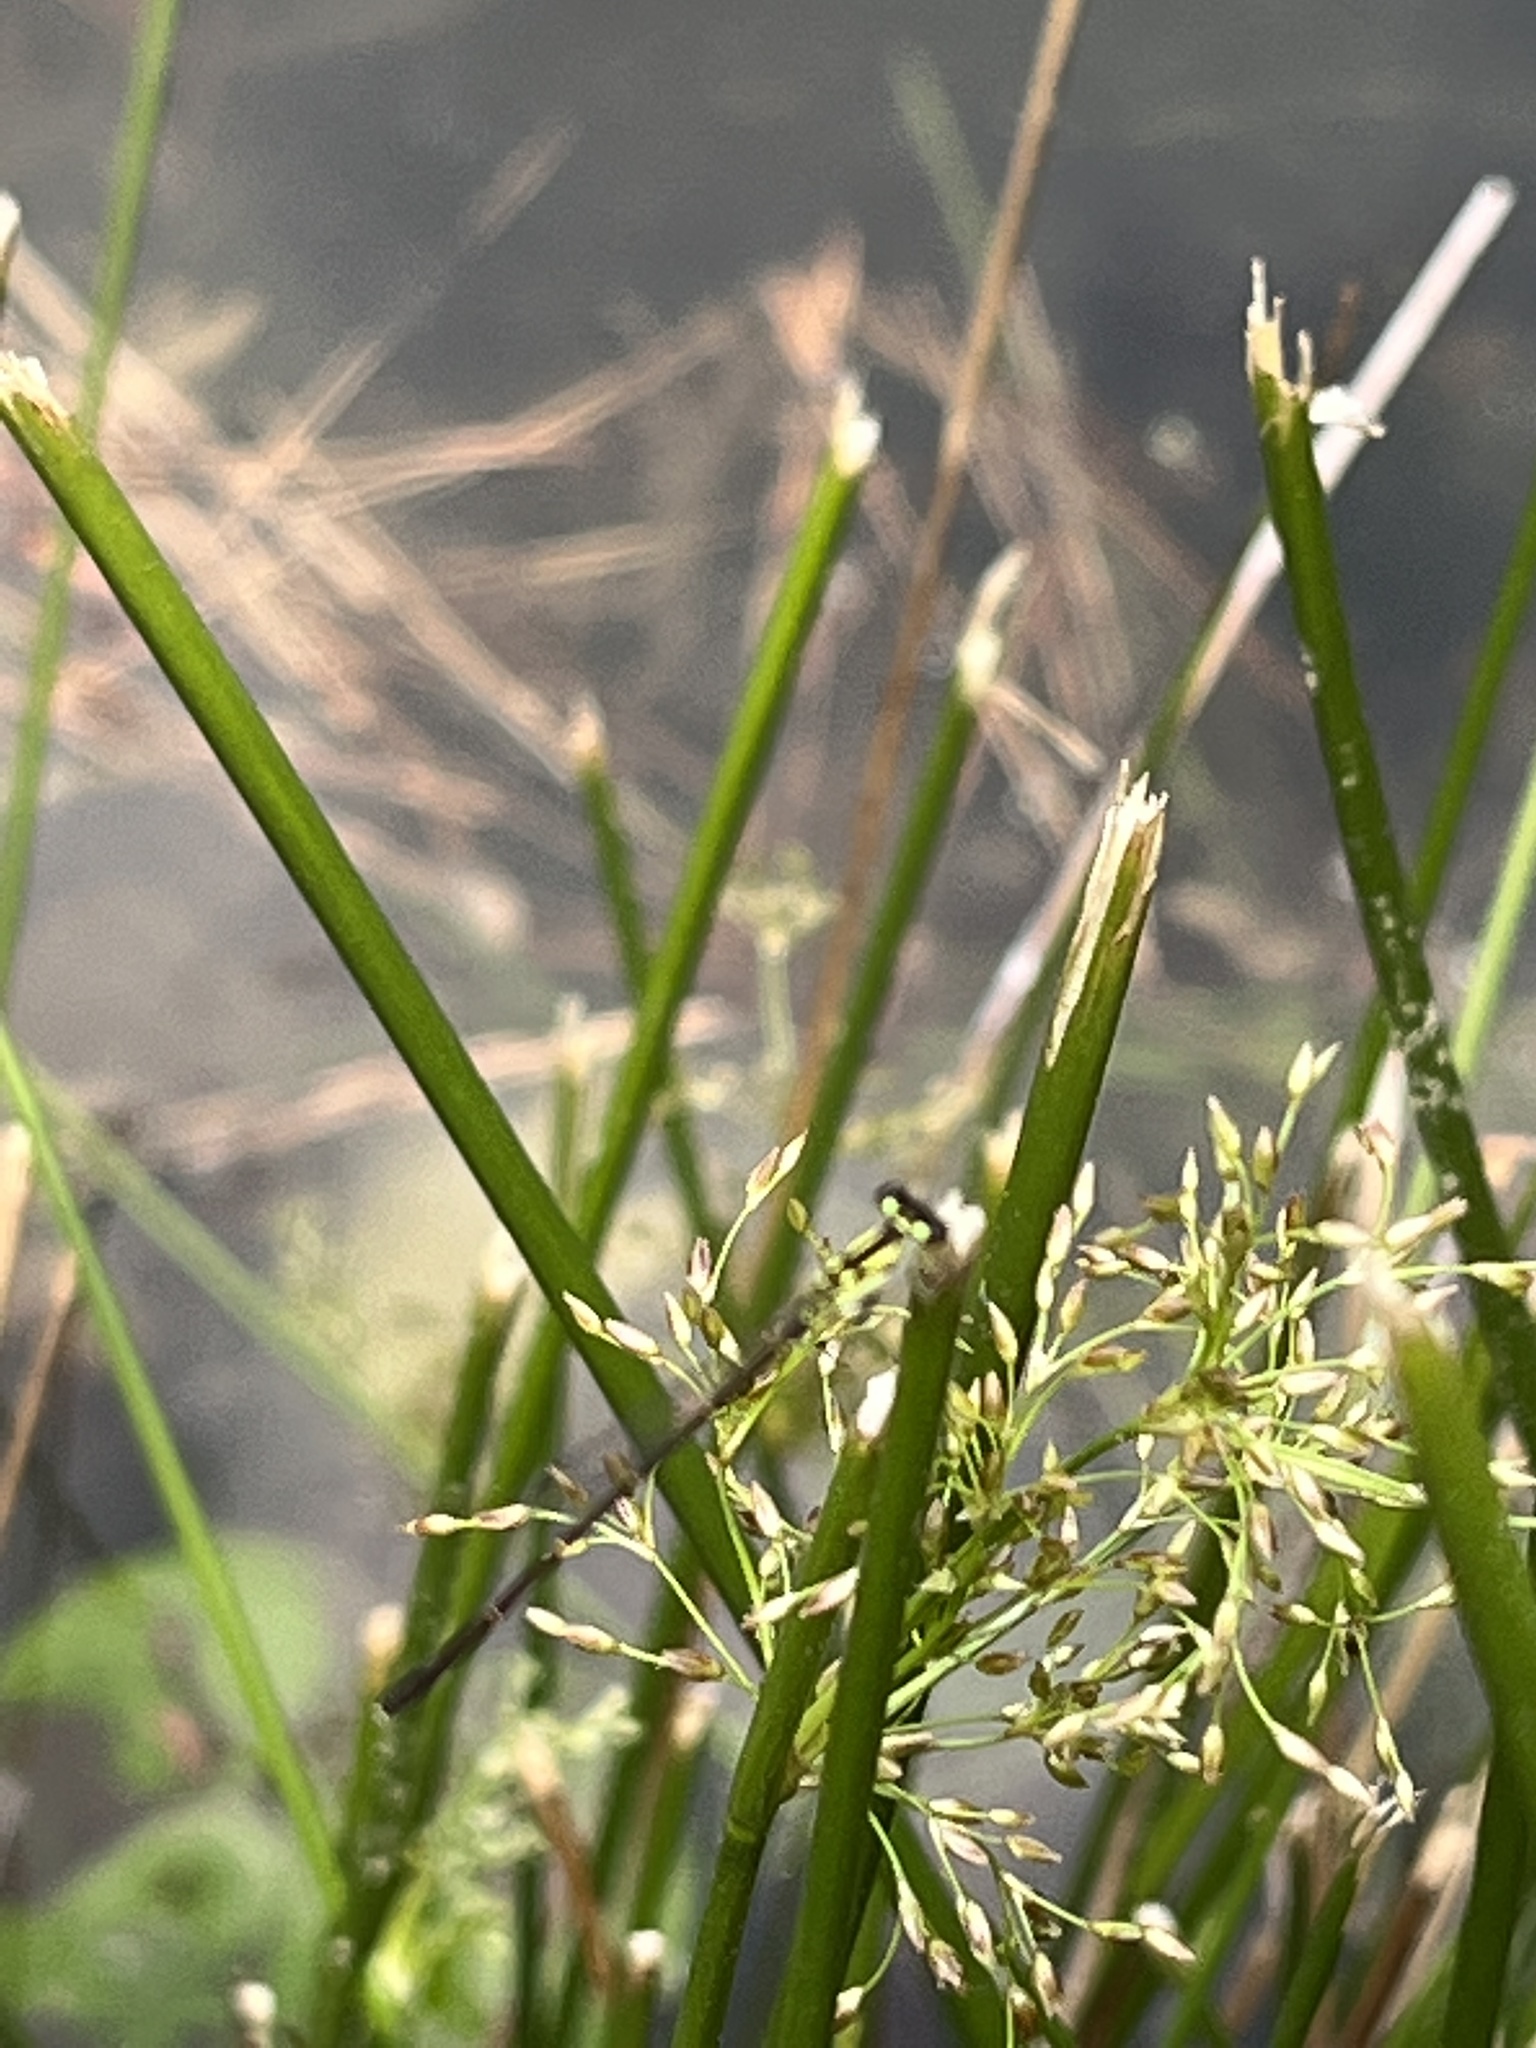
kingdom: Animalia
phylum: Arthropoda
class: Insecta
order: Odonata
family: Coenagrionidae
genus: Ischnura
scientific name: Ischnura posita
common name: Fragile forktail
